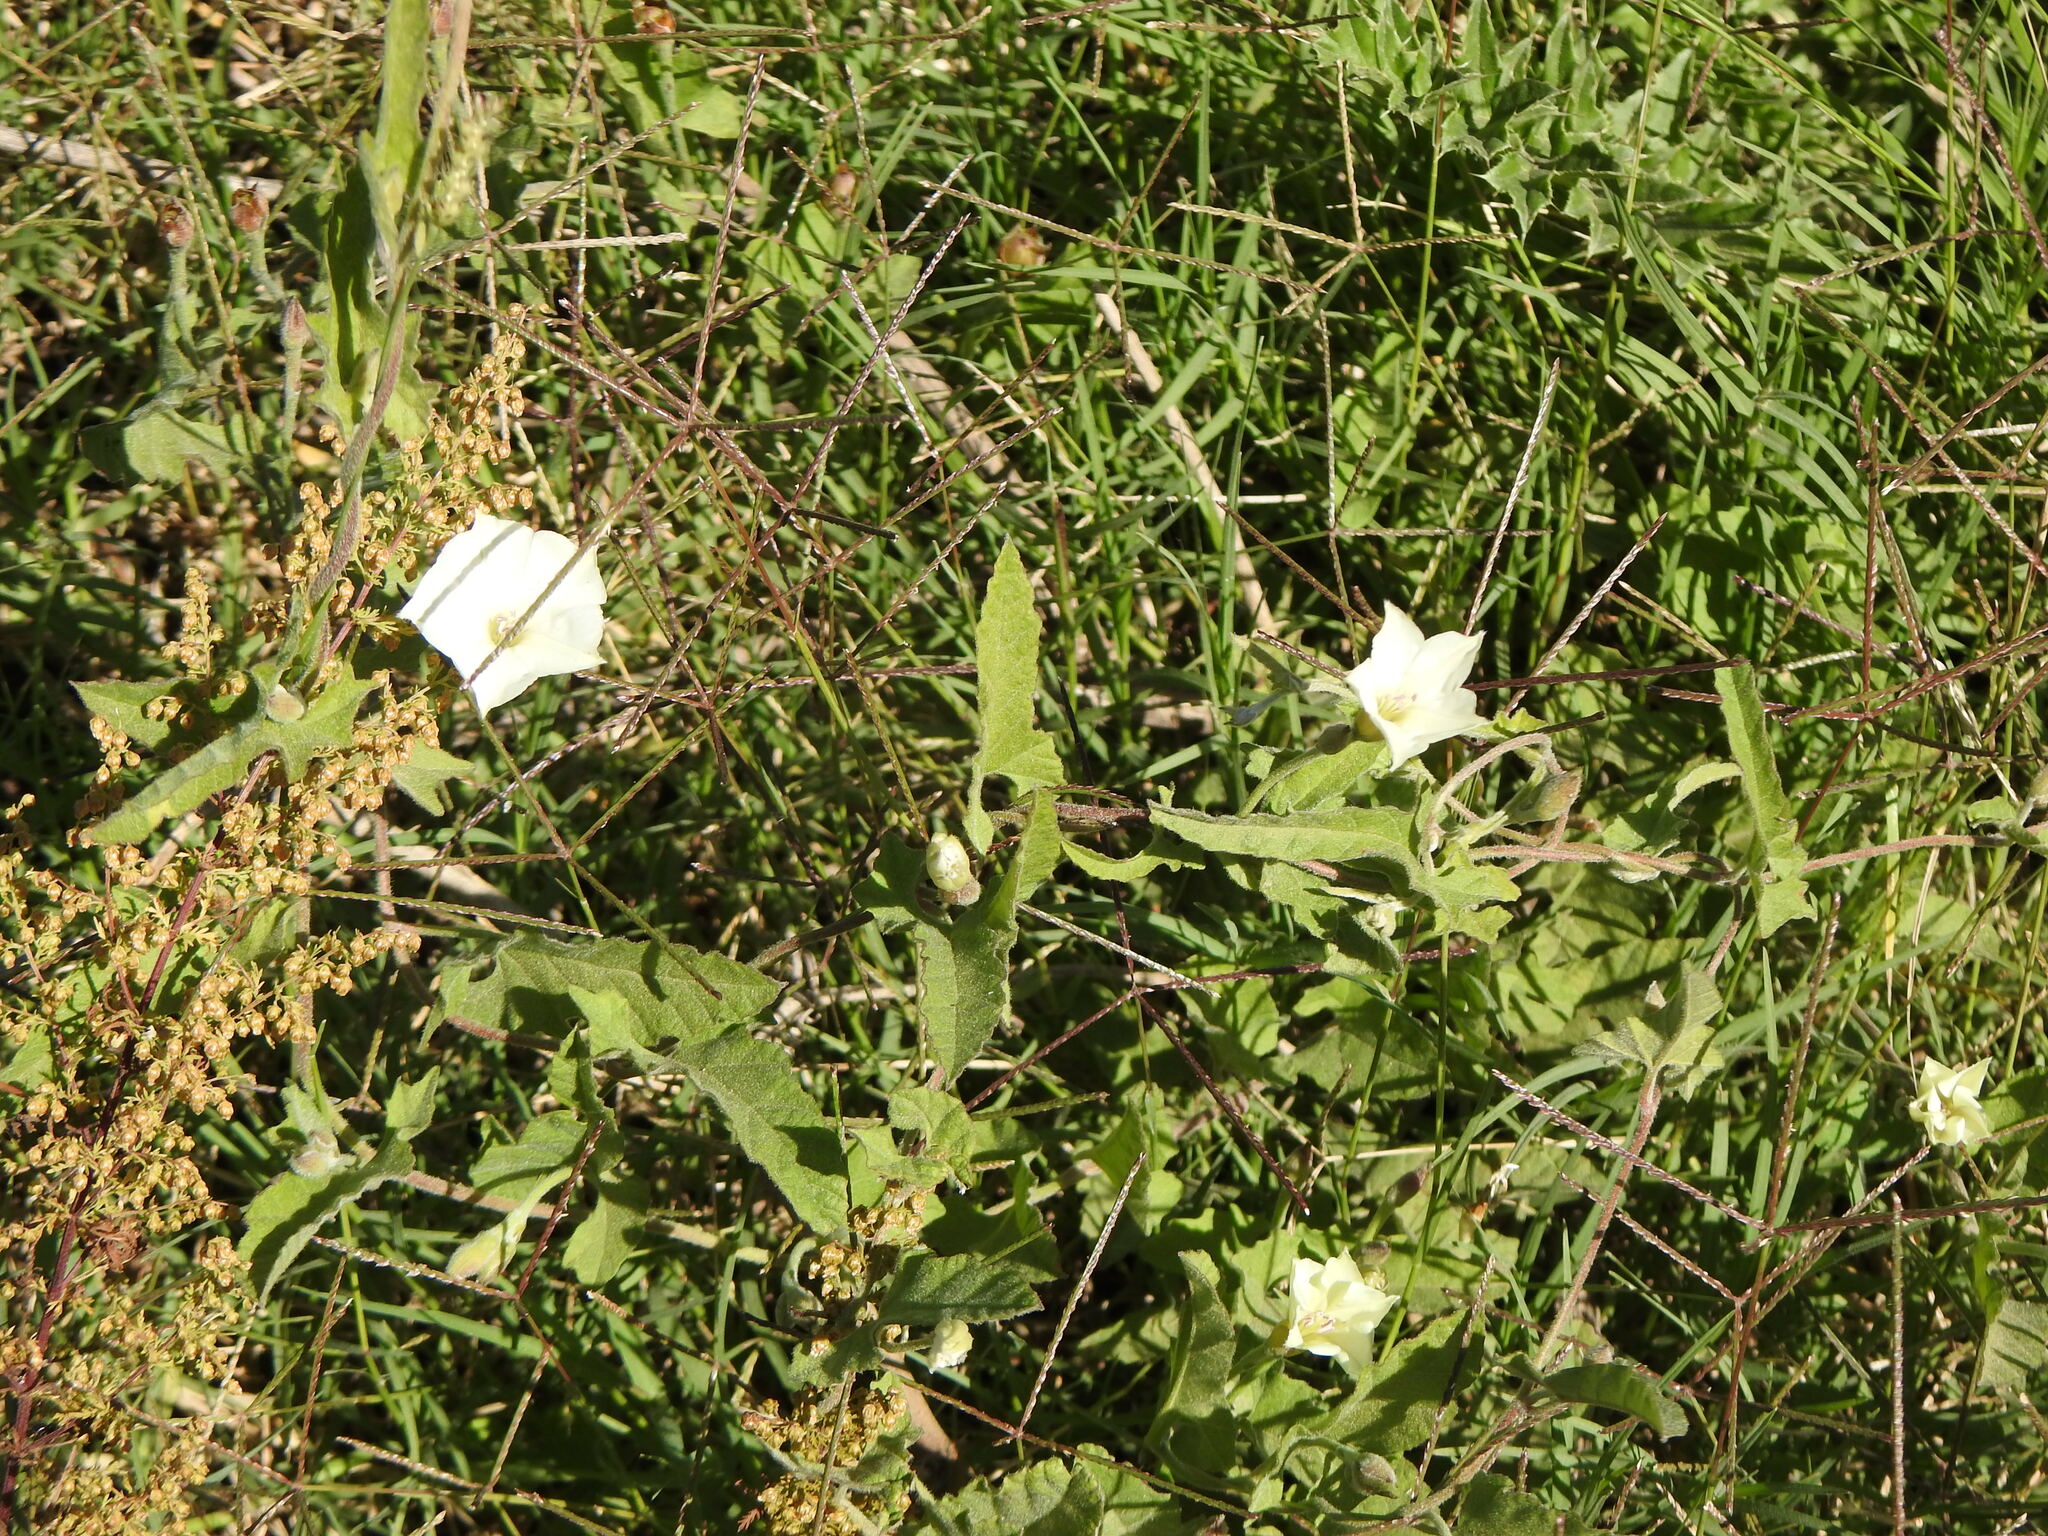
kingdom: Plantae
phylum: Tracheophyta
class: Magnoliopsida
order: Solanales
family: Convolvulaceae
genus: Convolvulus
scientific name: Convolvulus hermanniae
